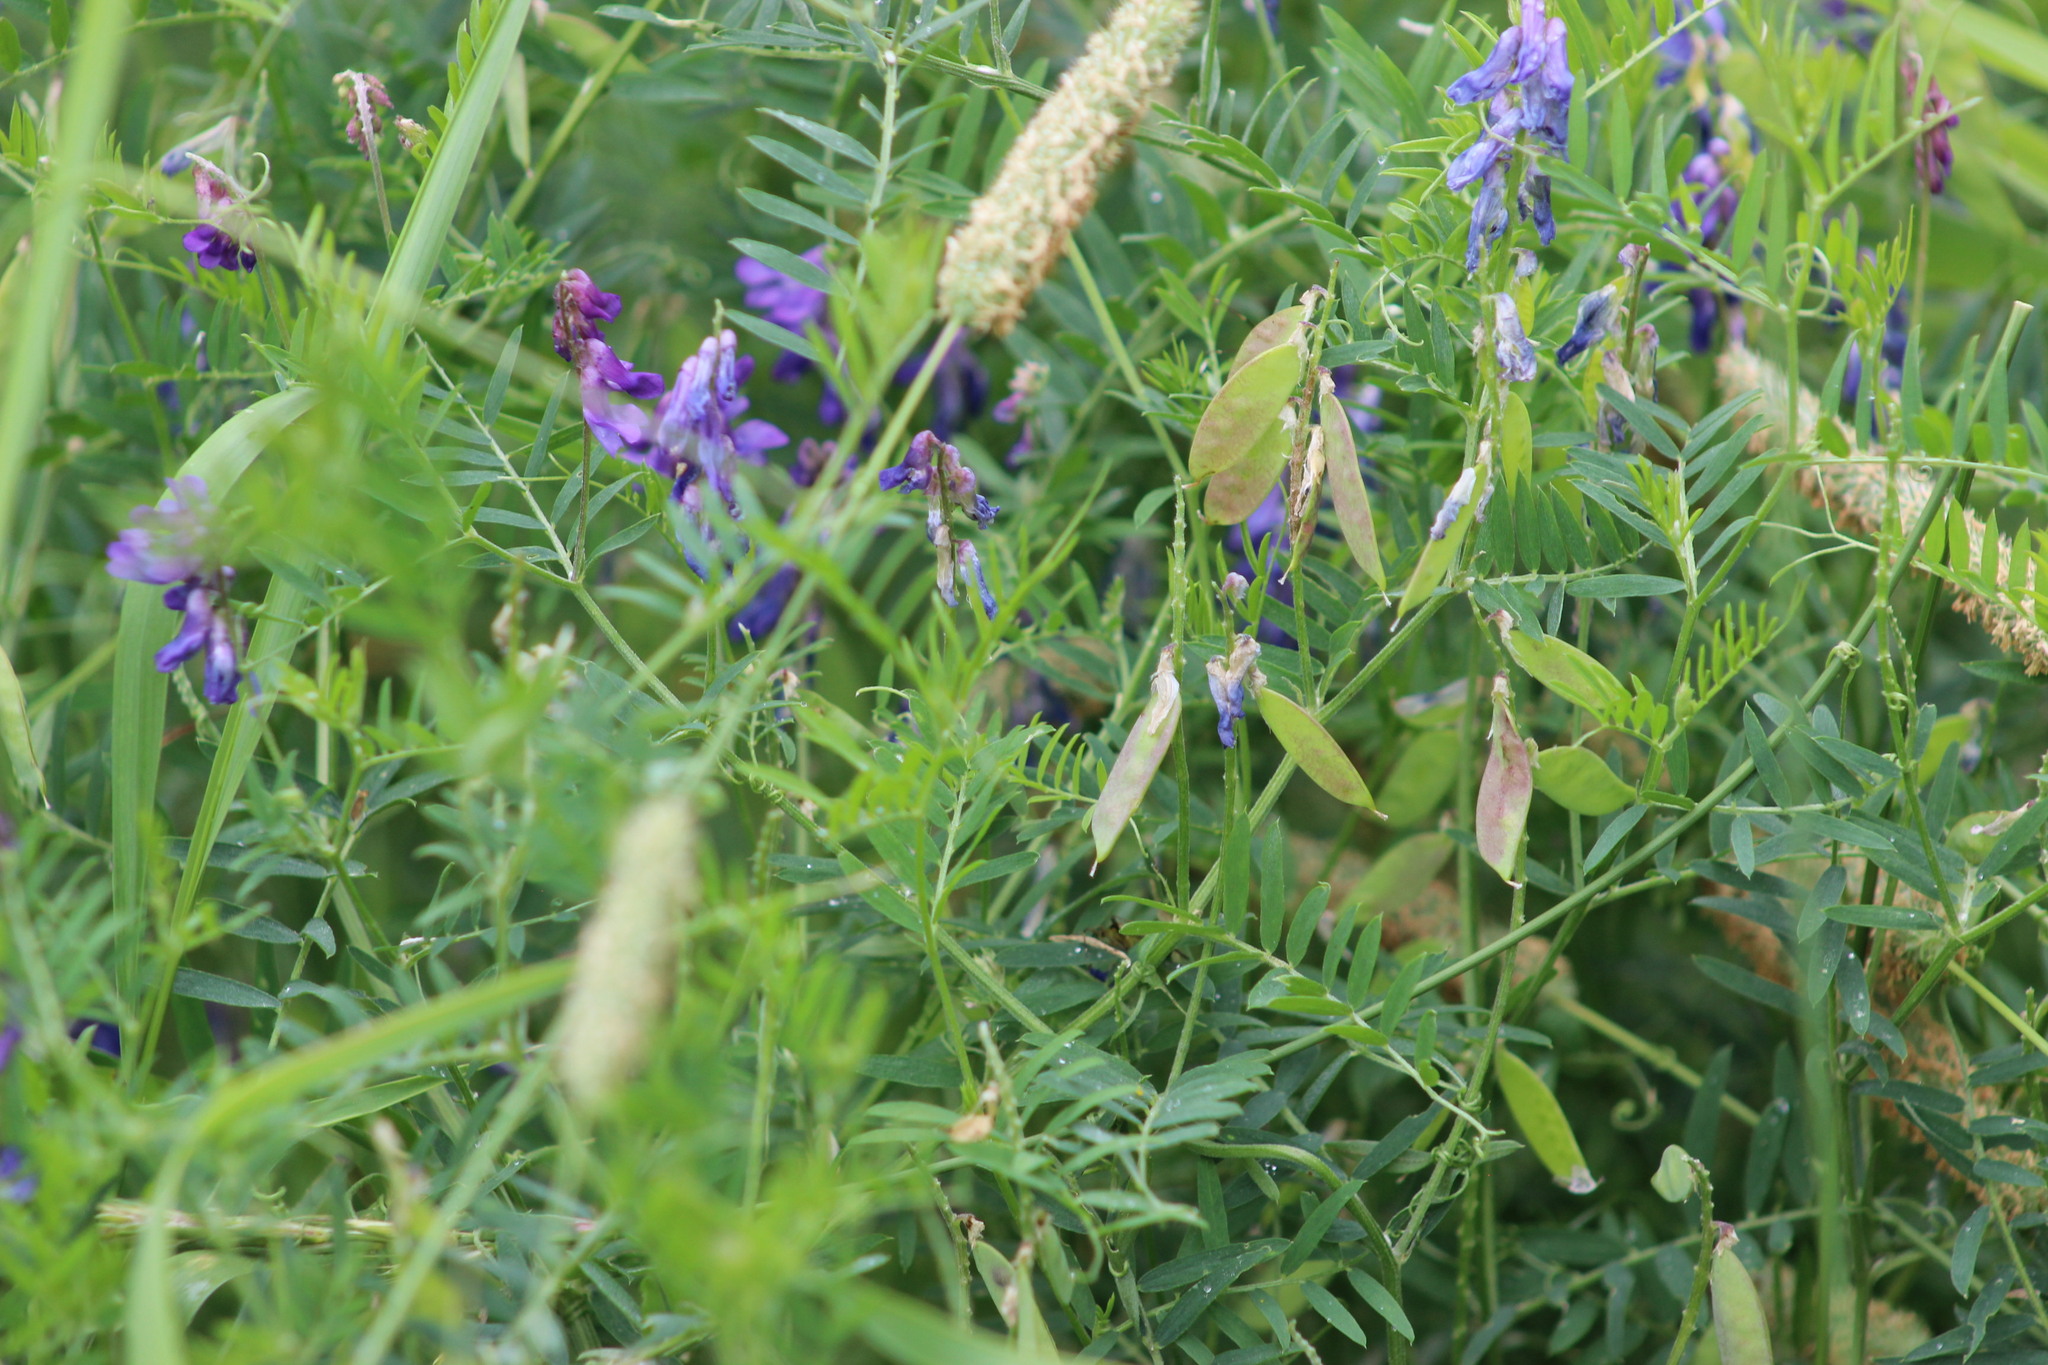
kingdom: Plantae
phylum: Tracheophyta
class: Magnoliopsida
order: Fabales
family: Fabaceae
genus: Vicia
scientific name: Vicia cracca
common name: Bird vetch
